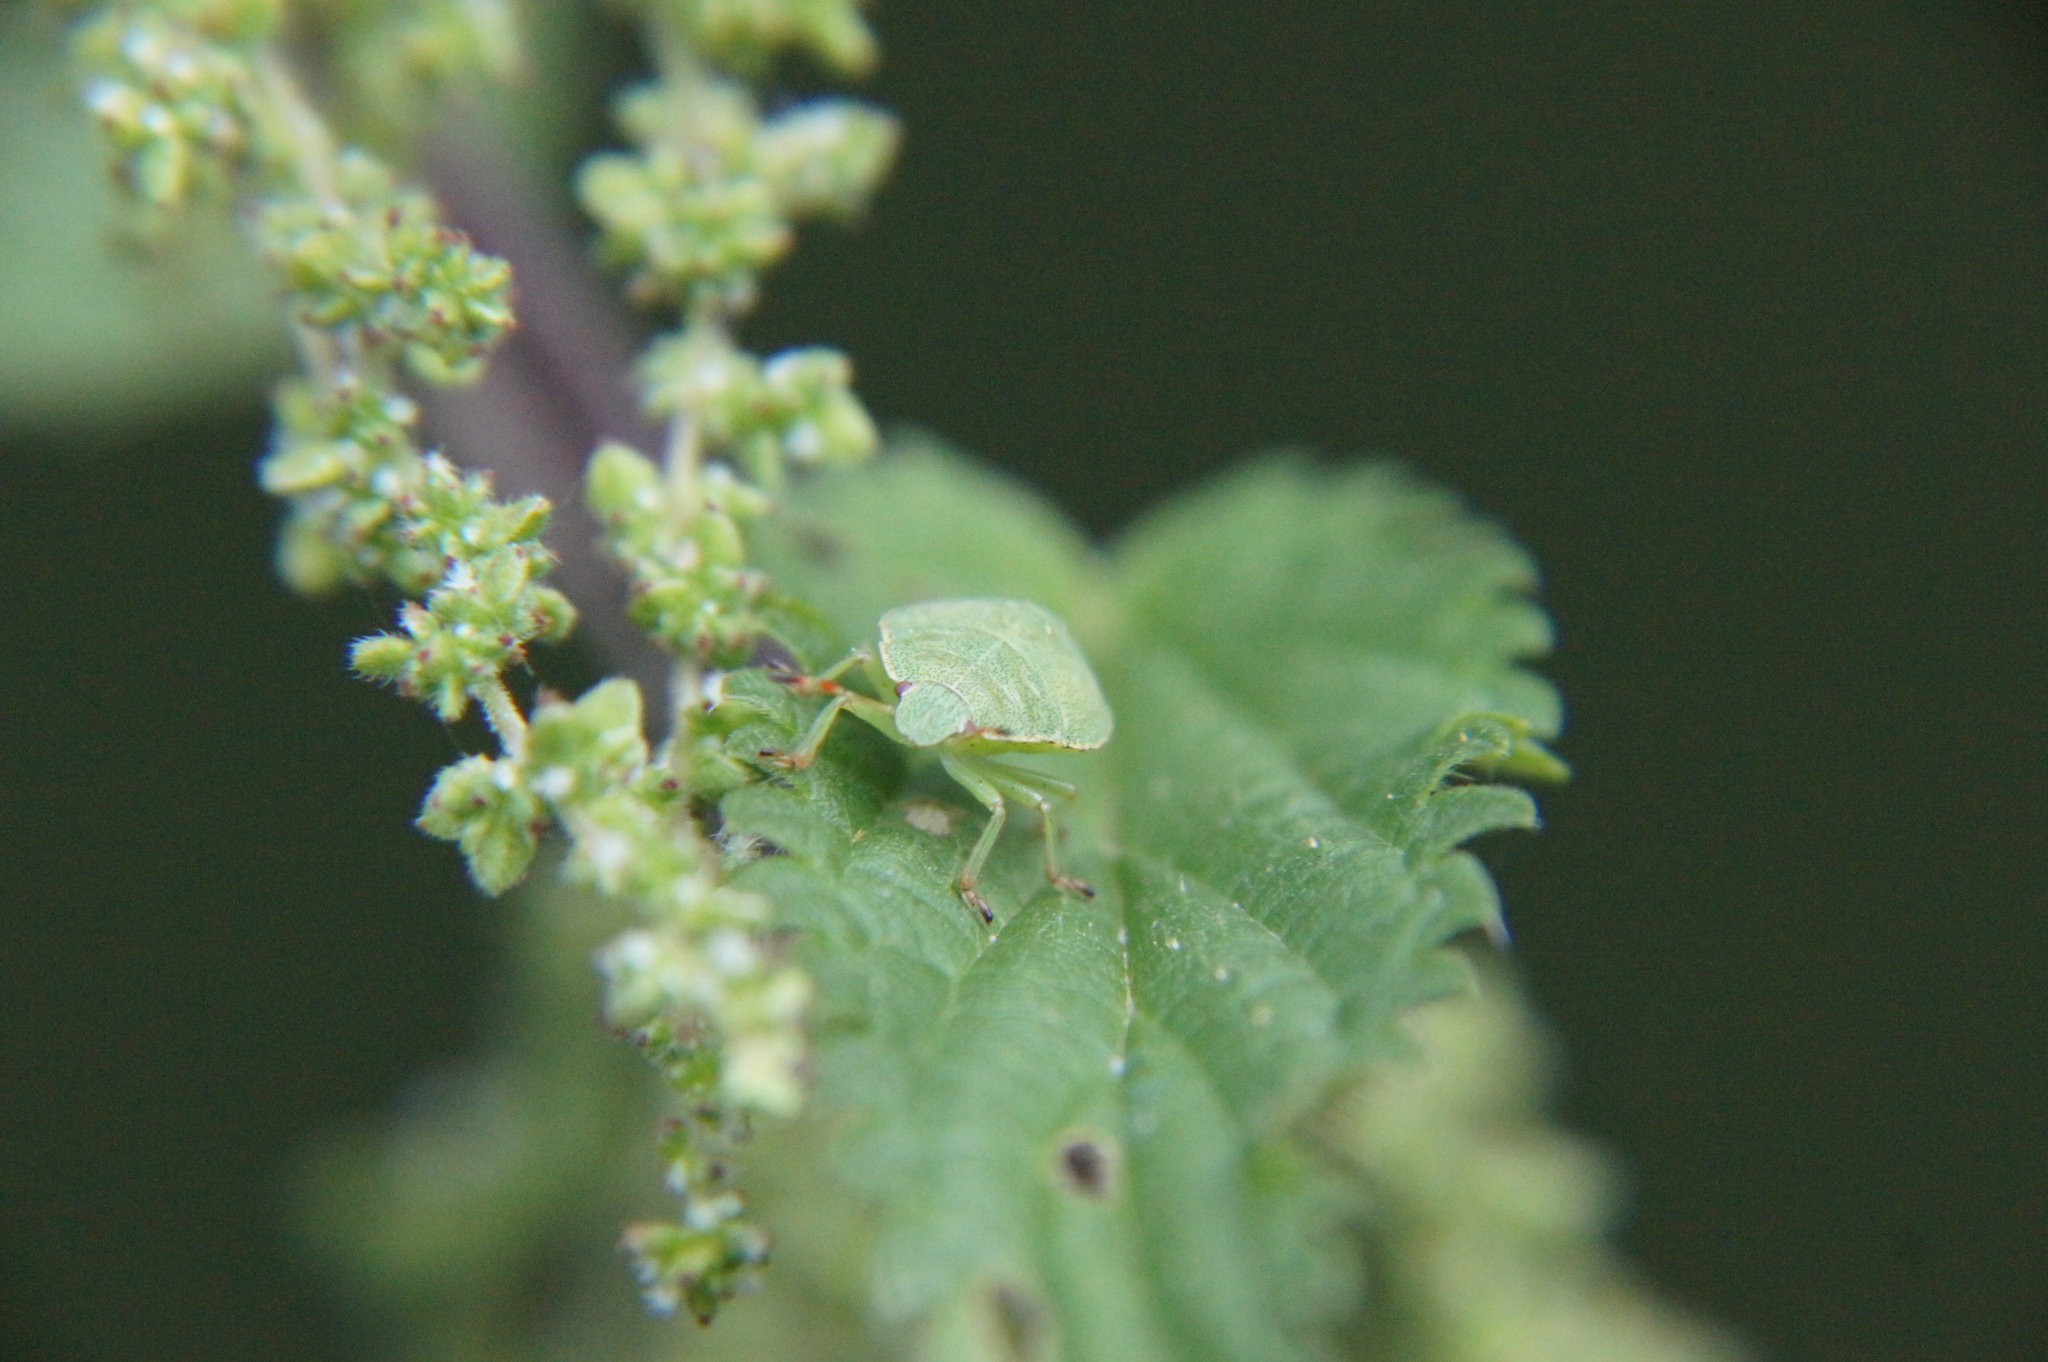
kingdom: Animalia
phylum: Arthropoda
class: Insecta
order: Hemiptera
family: Pentatomidae
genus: Palomena
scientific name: Palomena prasina
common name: Green shieldbug
